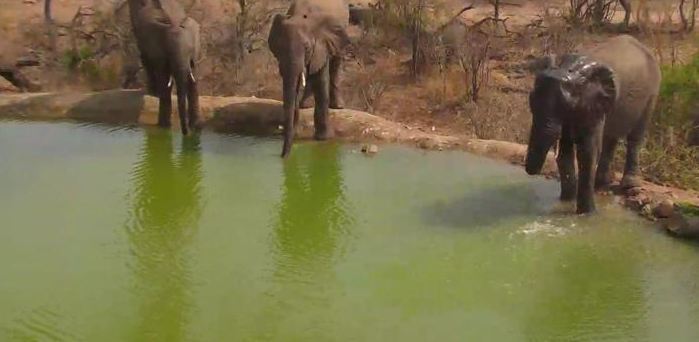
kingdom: Animalia
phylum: Chordata
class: Mammalia
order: Proboscidea
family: Elephantidae
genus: Loxodonta
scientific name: Loxodonta africana
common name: African elephant
